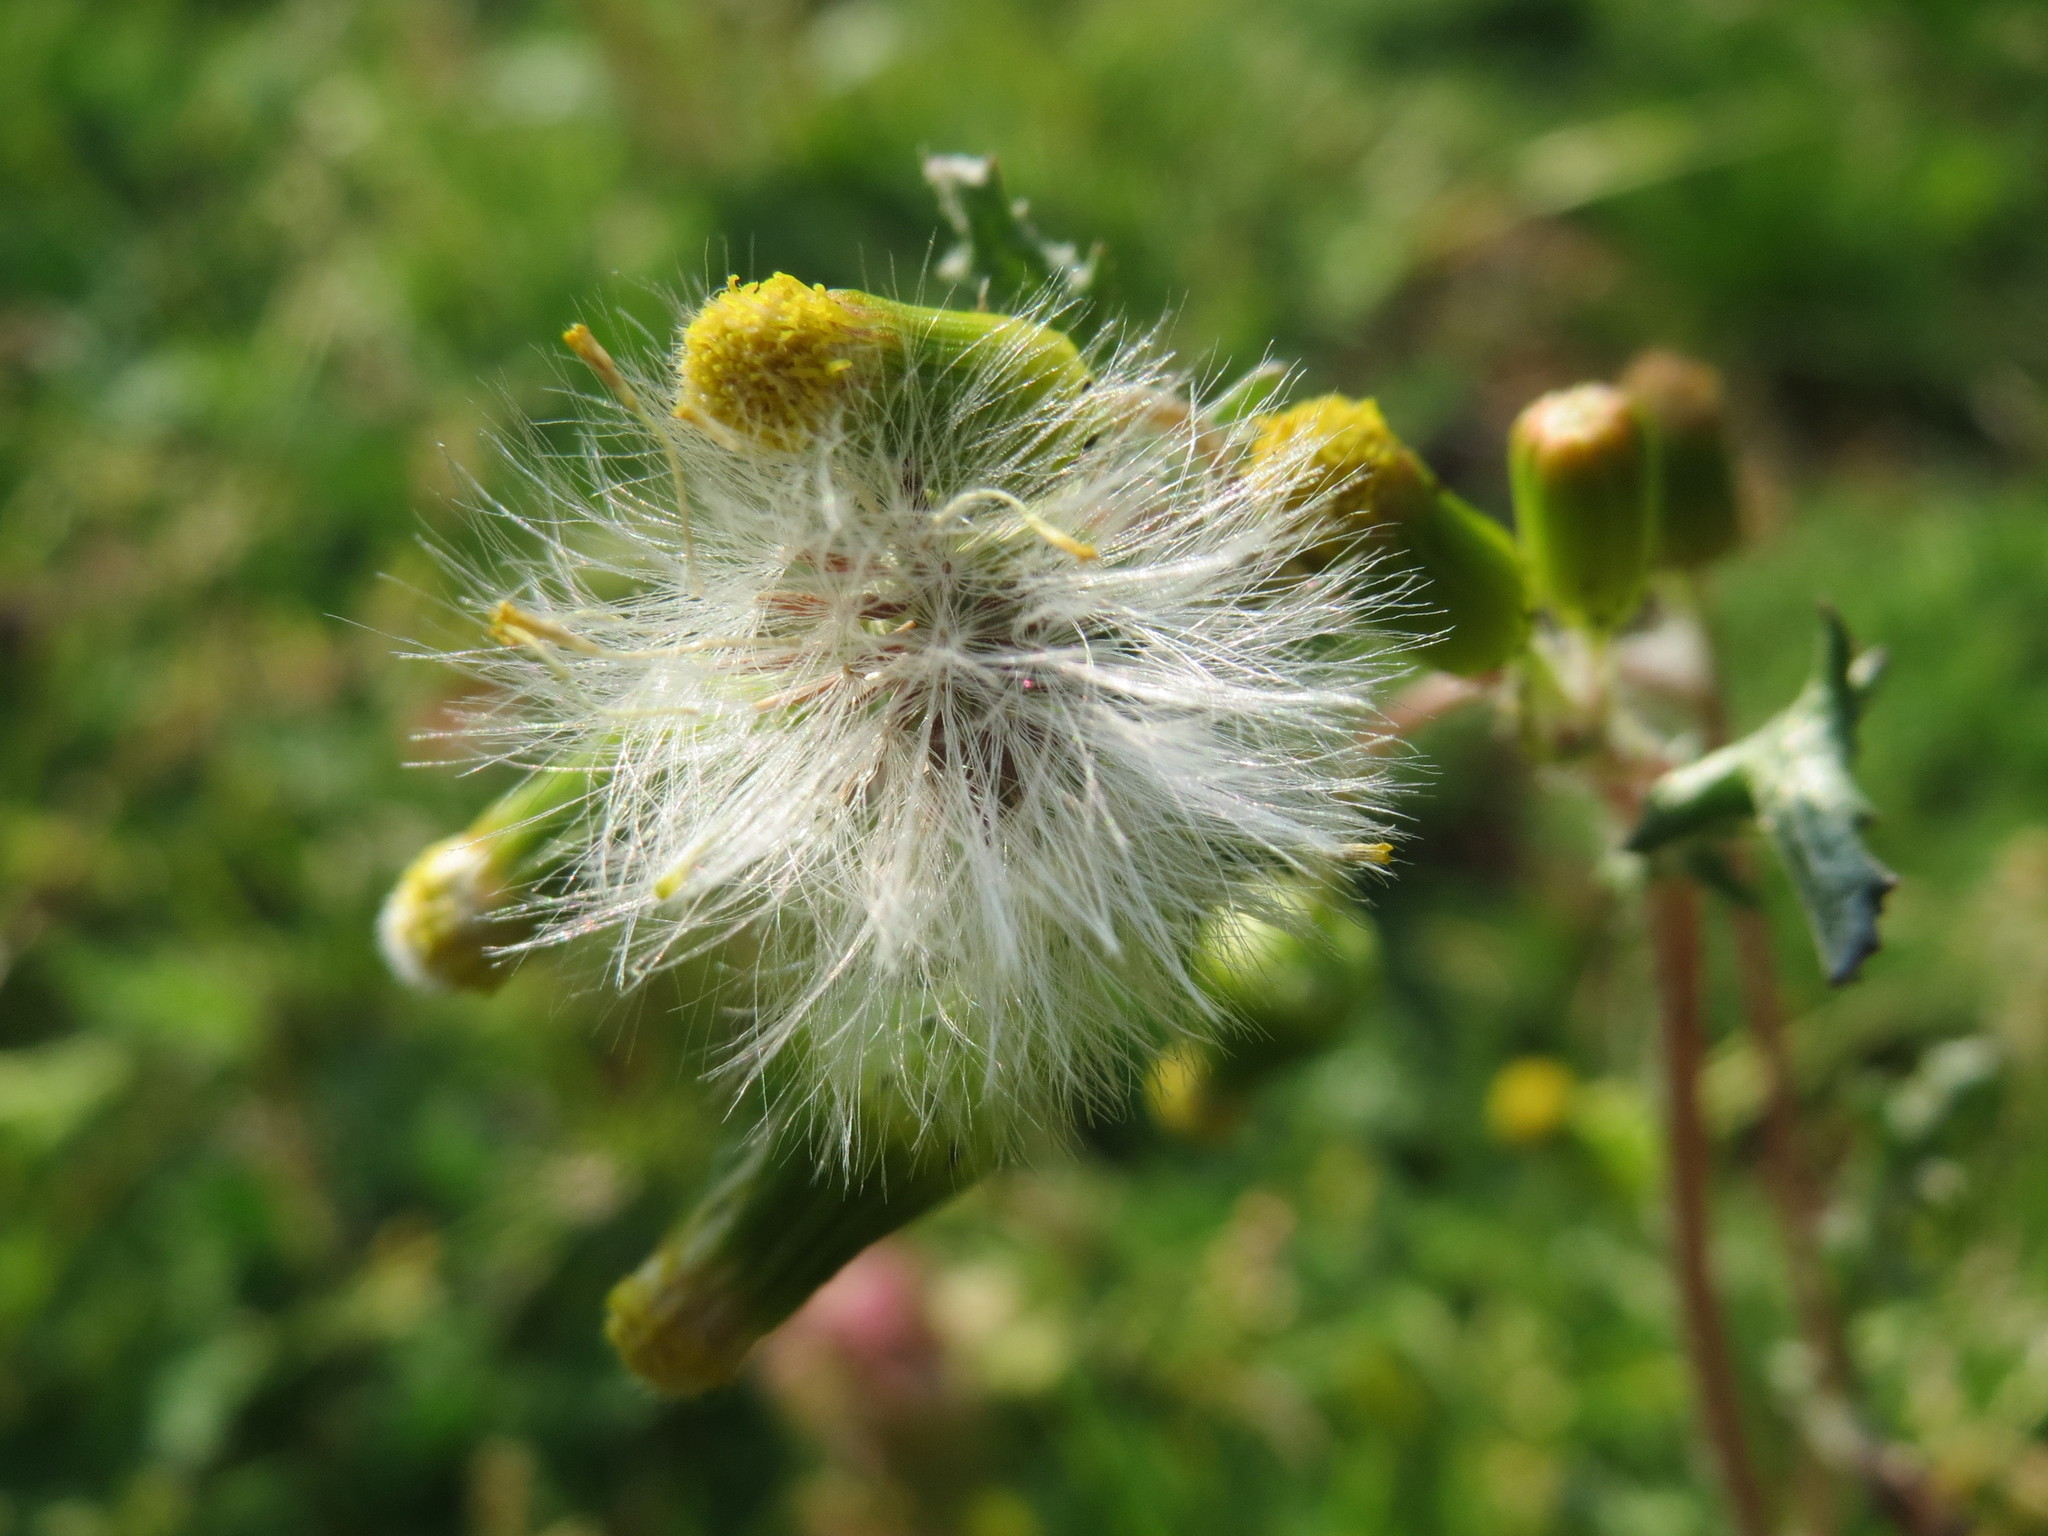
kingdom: Plantae
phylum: Tracheophyta
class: Magnoliopsida
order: Asterales
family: Asteraceae
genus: Senecio
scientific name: Senecio vulgaris
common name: Old-man-in-the-spring
